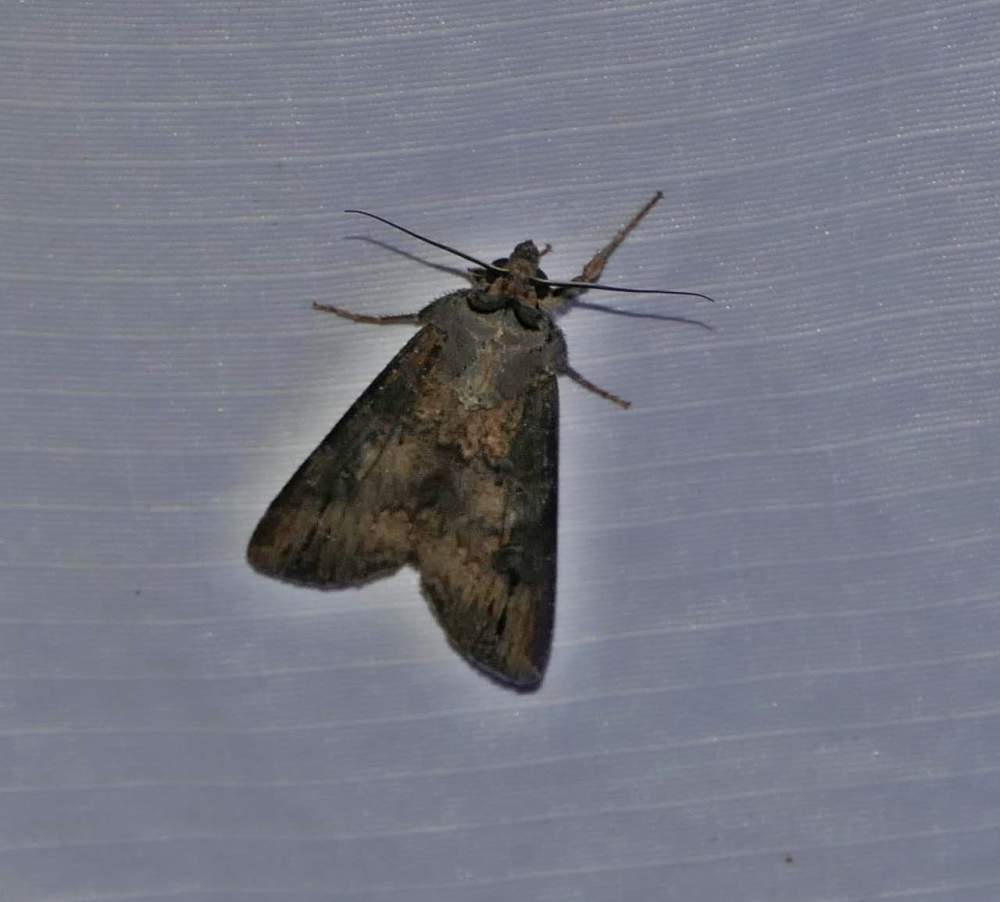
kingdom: Animalia
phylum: Arthropoda
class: Insecta
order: Lepidoptera
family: Noctuidae
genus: Agrotis
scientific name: Agrotis ipsilon
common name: Dark sword-grass
